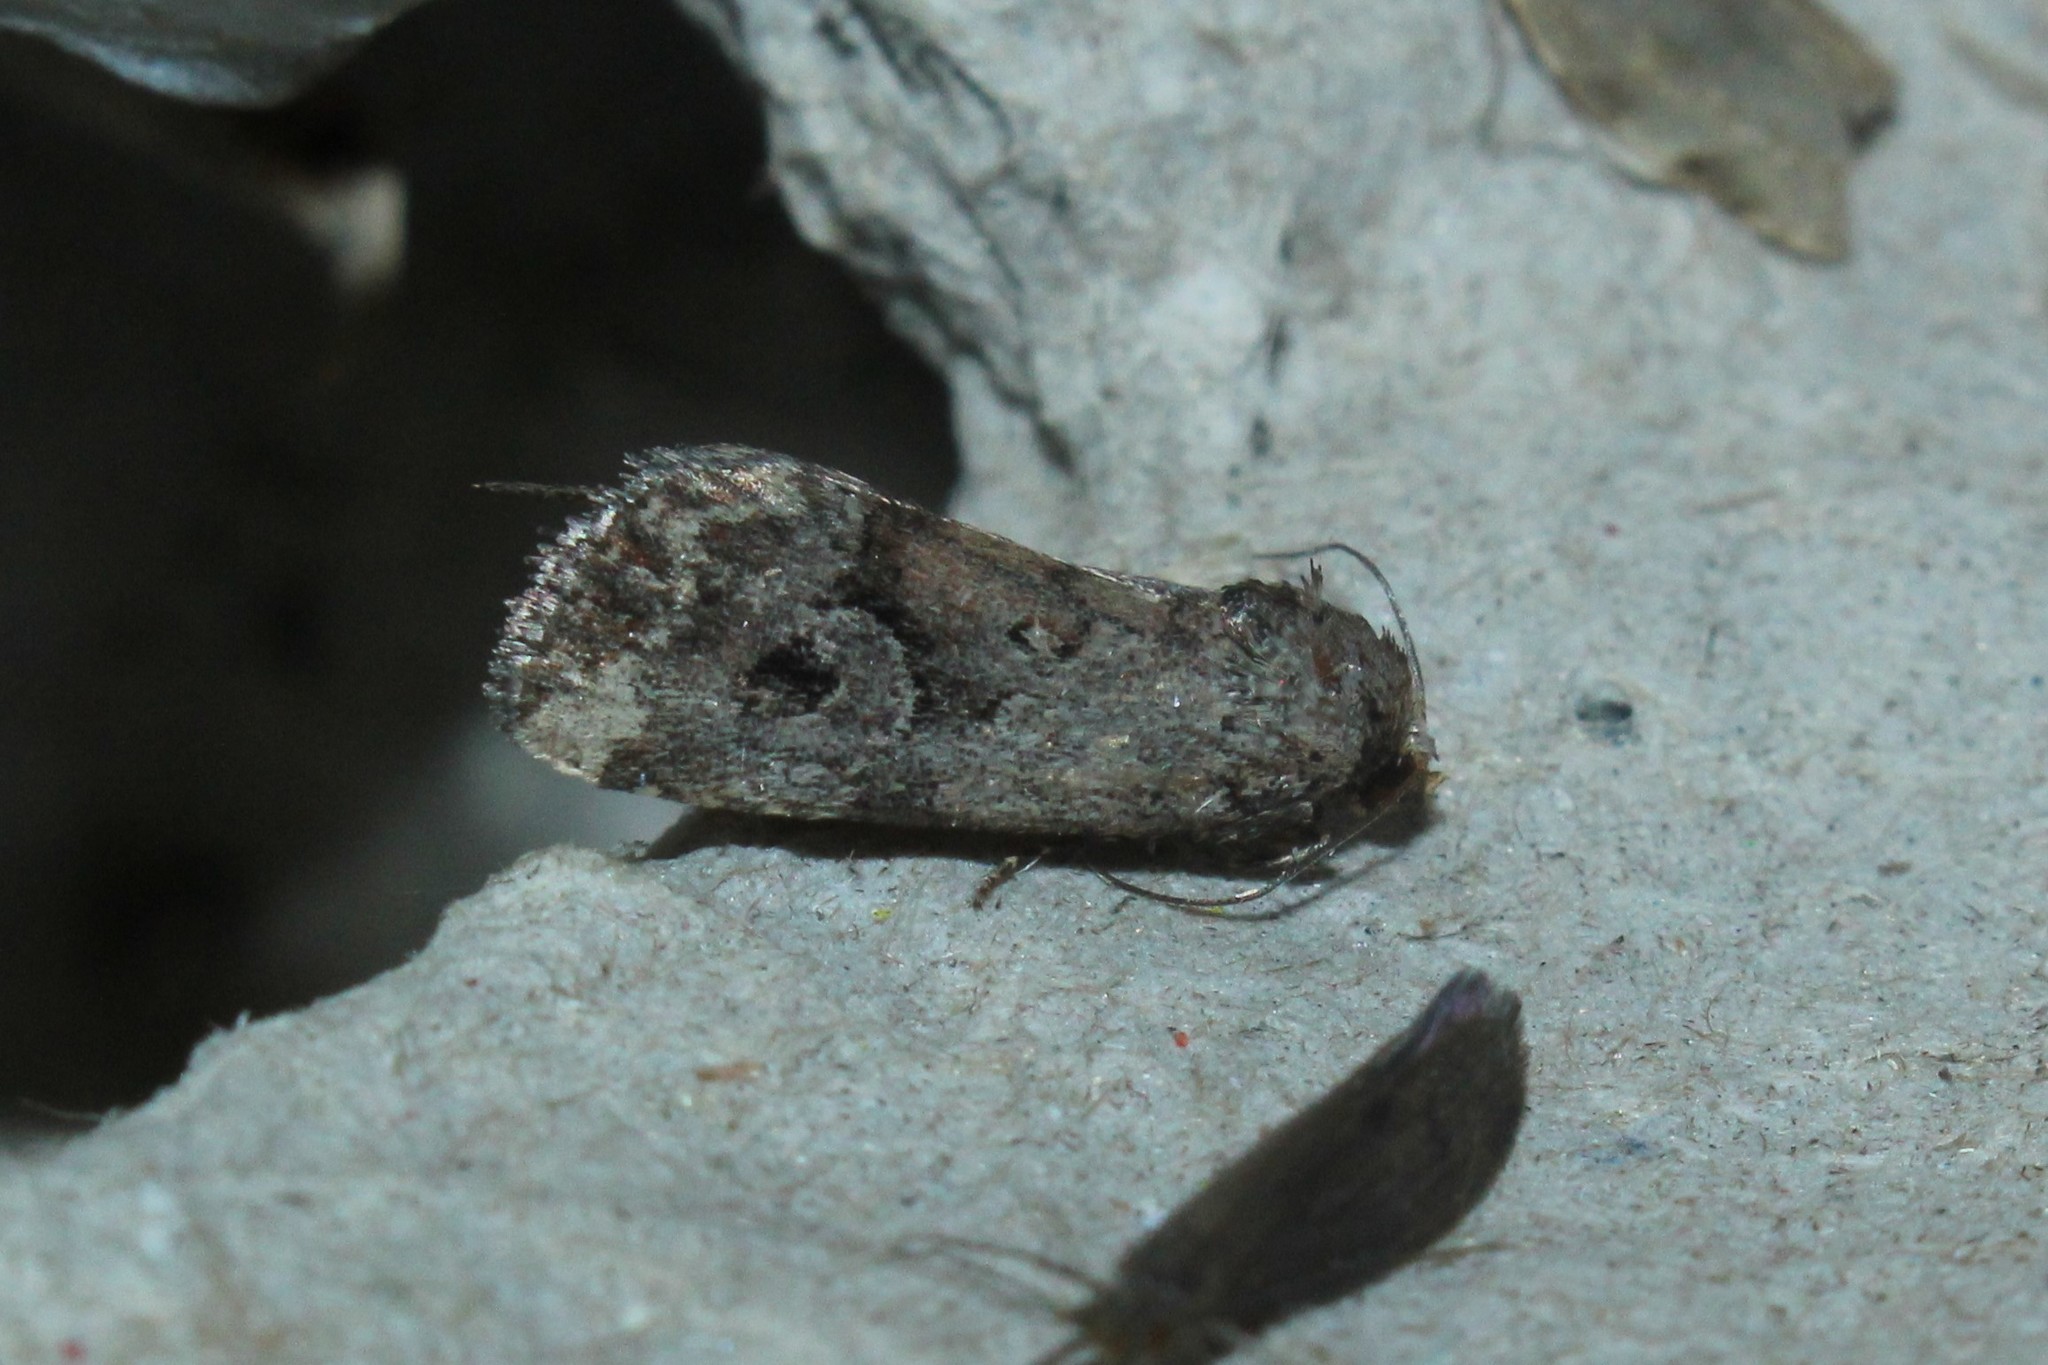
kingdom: Animalia
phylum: Arthropoda
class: Insecta
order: Lepidoptera
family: Noctuidae
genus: Elaphria
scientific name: Elaphria alapallida
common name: Pale-winged midget
